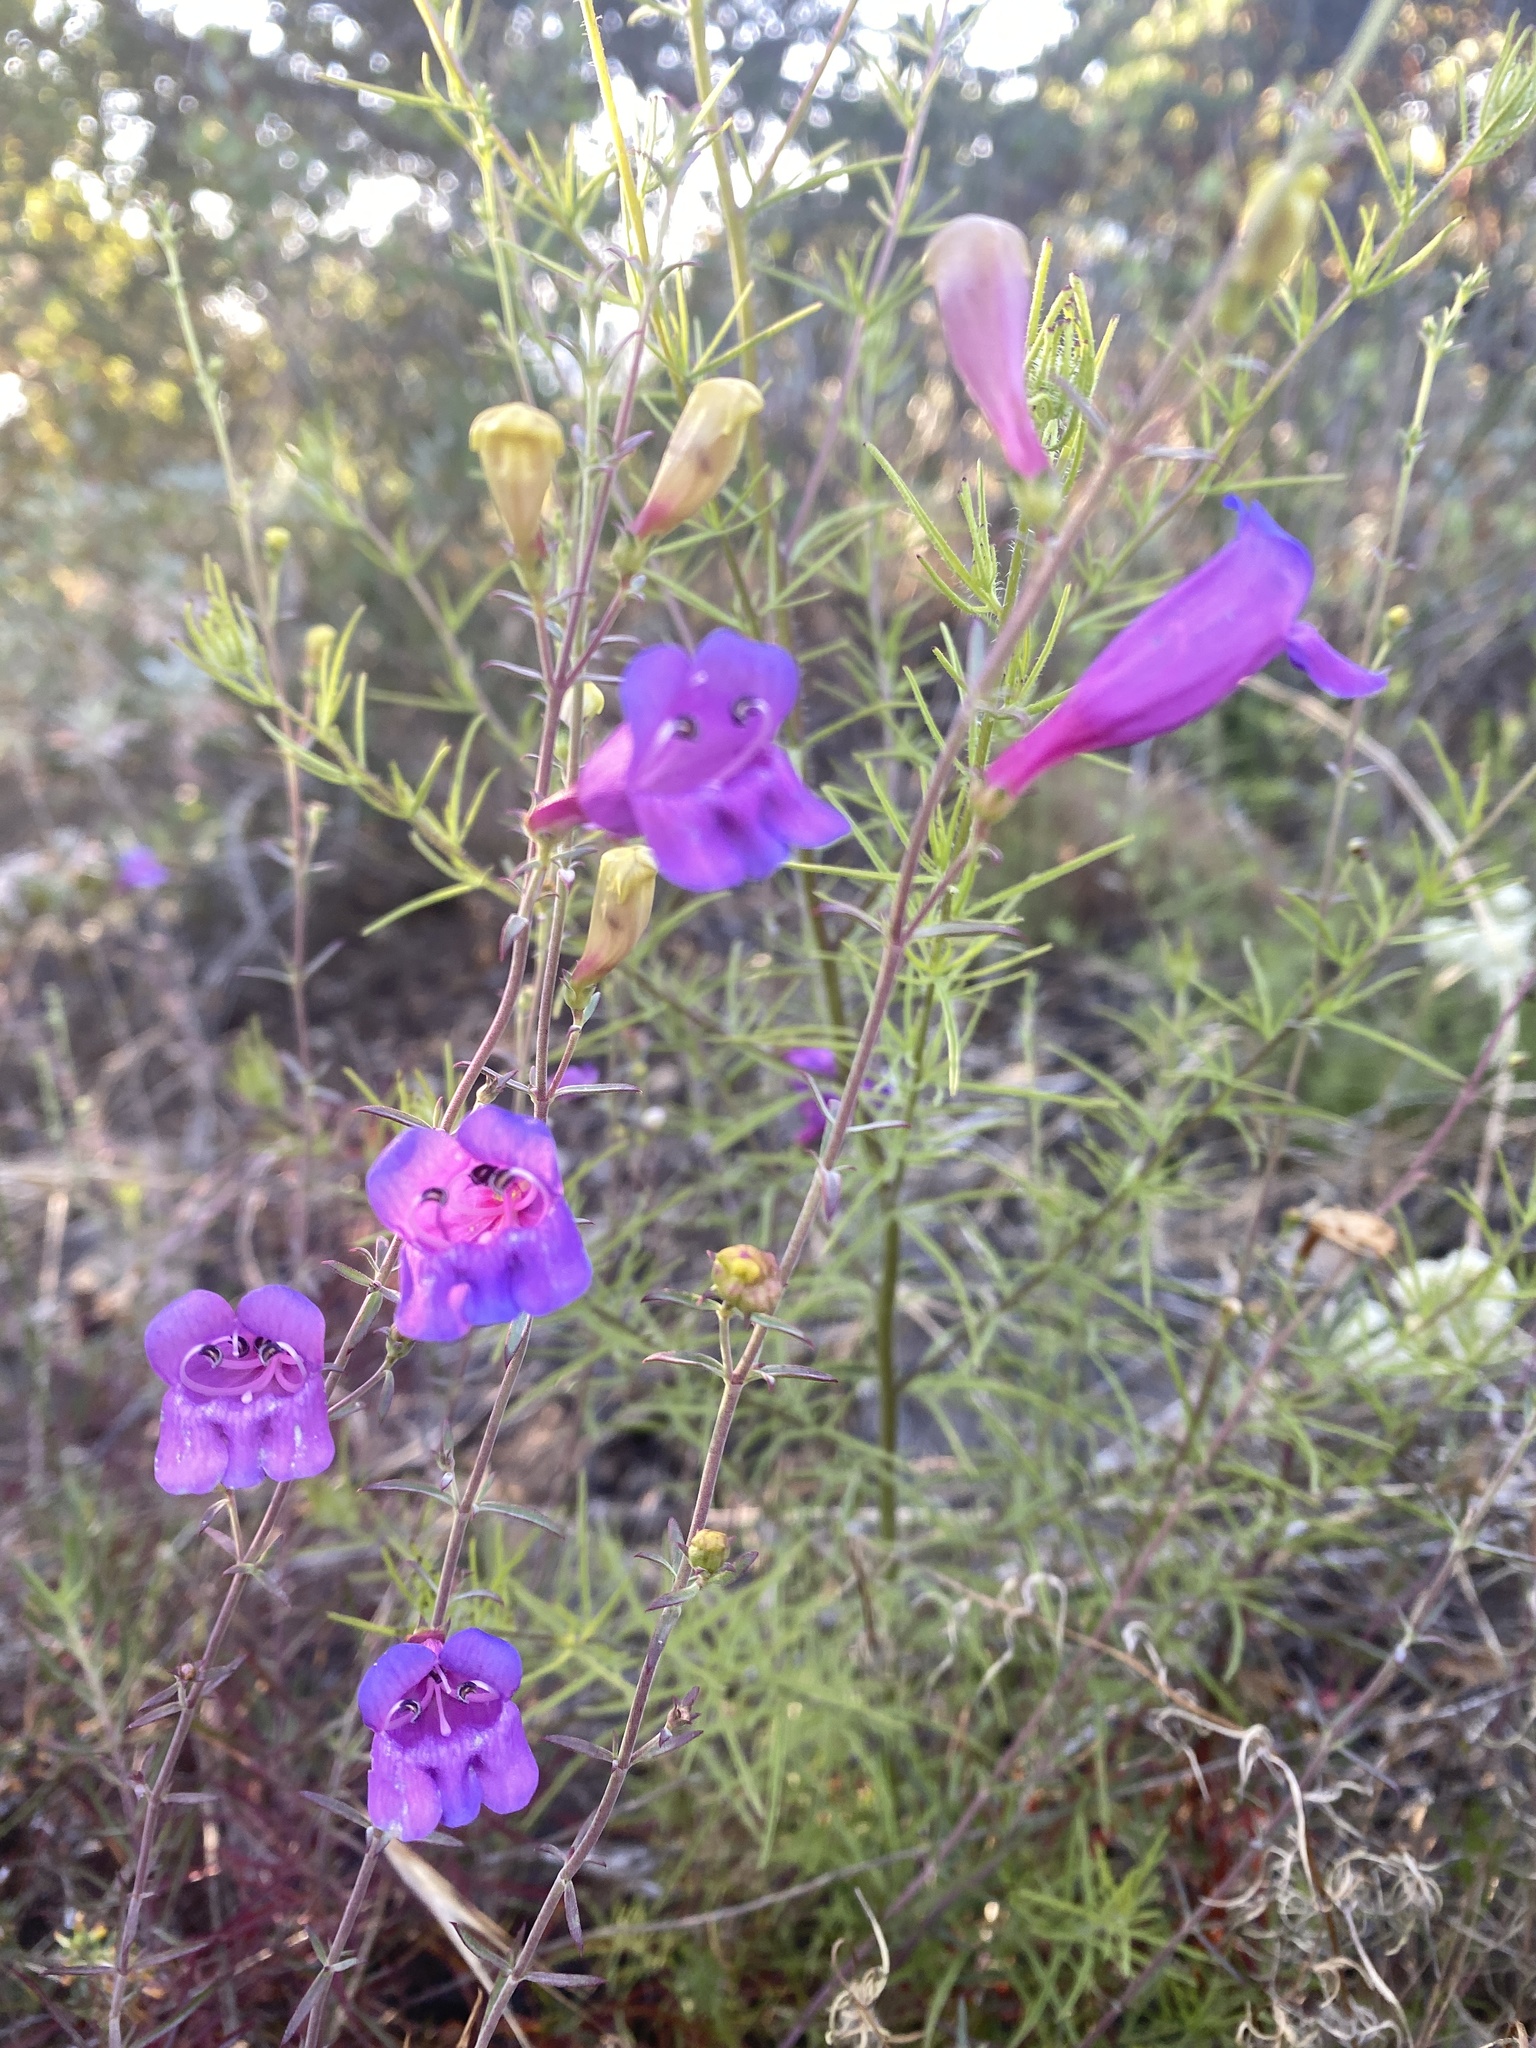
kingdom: Plantae
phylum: Tracheophyta
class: Magnoliopsida
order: Lamiales
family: Plantaginaceae
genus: Penstemon
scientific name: Penstemon heterophyllus
